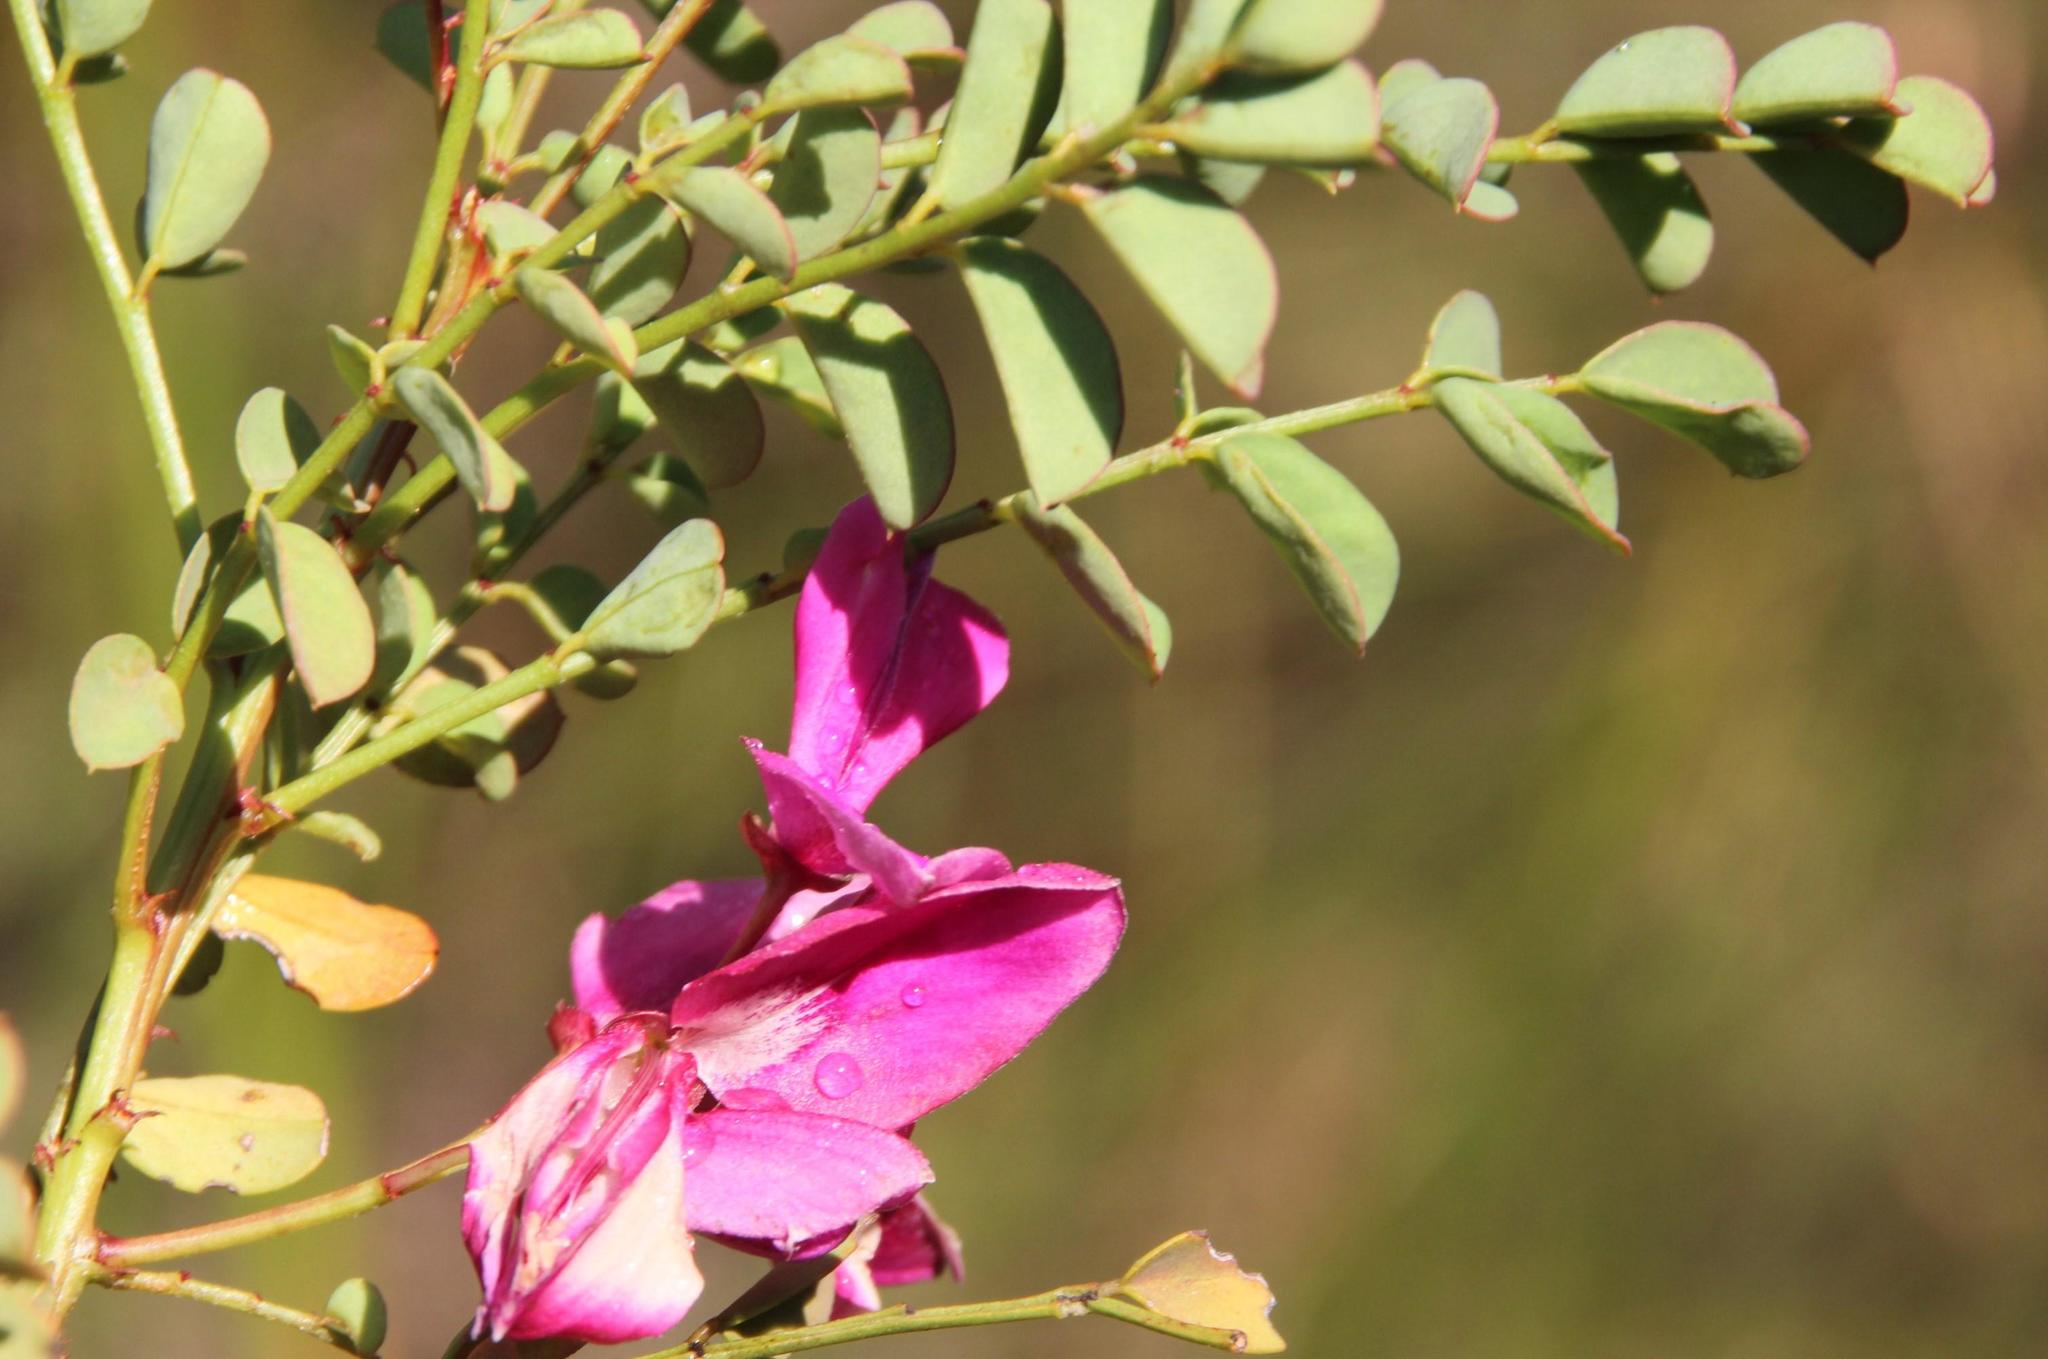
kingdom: Plantae
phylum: Tracheophyta
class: Magnoliopsida
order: Fabales
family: Fabaceae
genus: Indigofera
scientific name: Indigofera langebergensis
